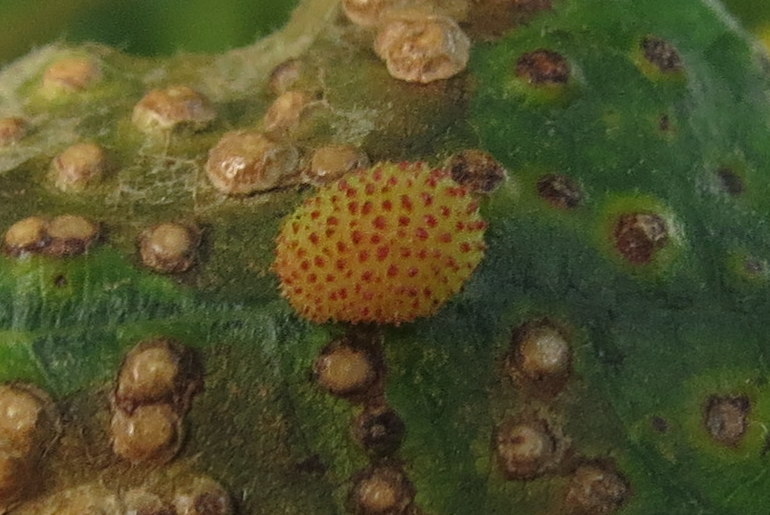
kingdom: Animalia
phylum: Arthropoda
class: Insecta
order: Hymenoptera
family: Cynipidae
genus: Acraspis
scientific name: Acraspis quercushirta
